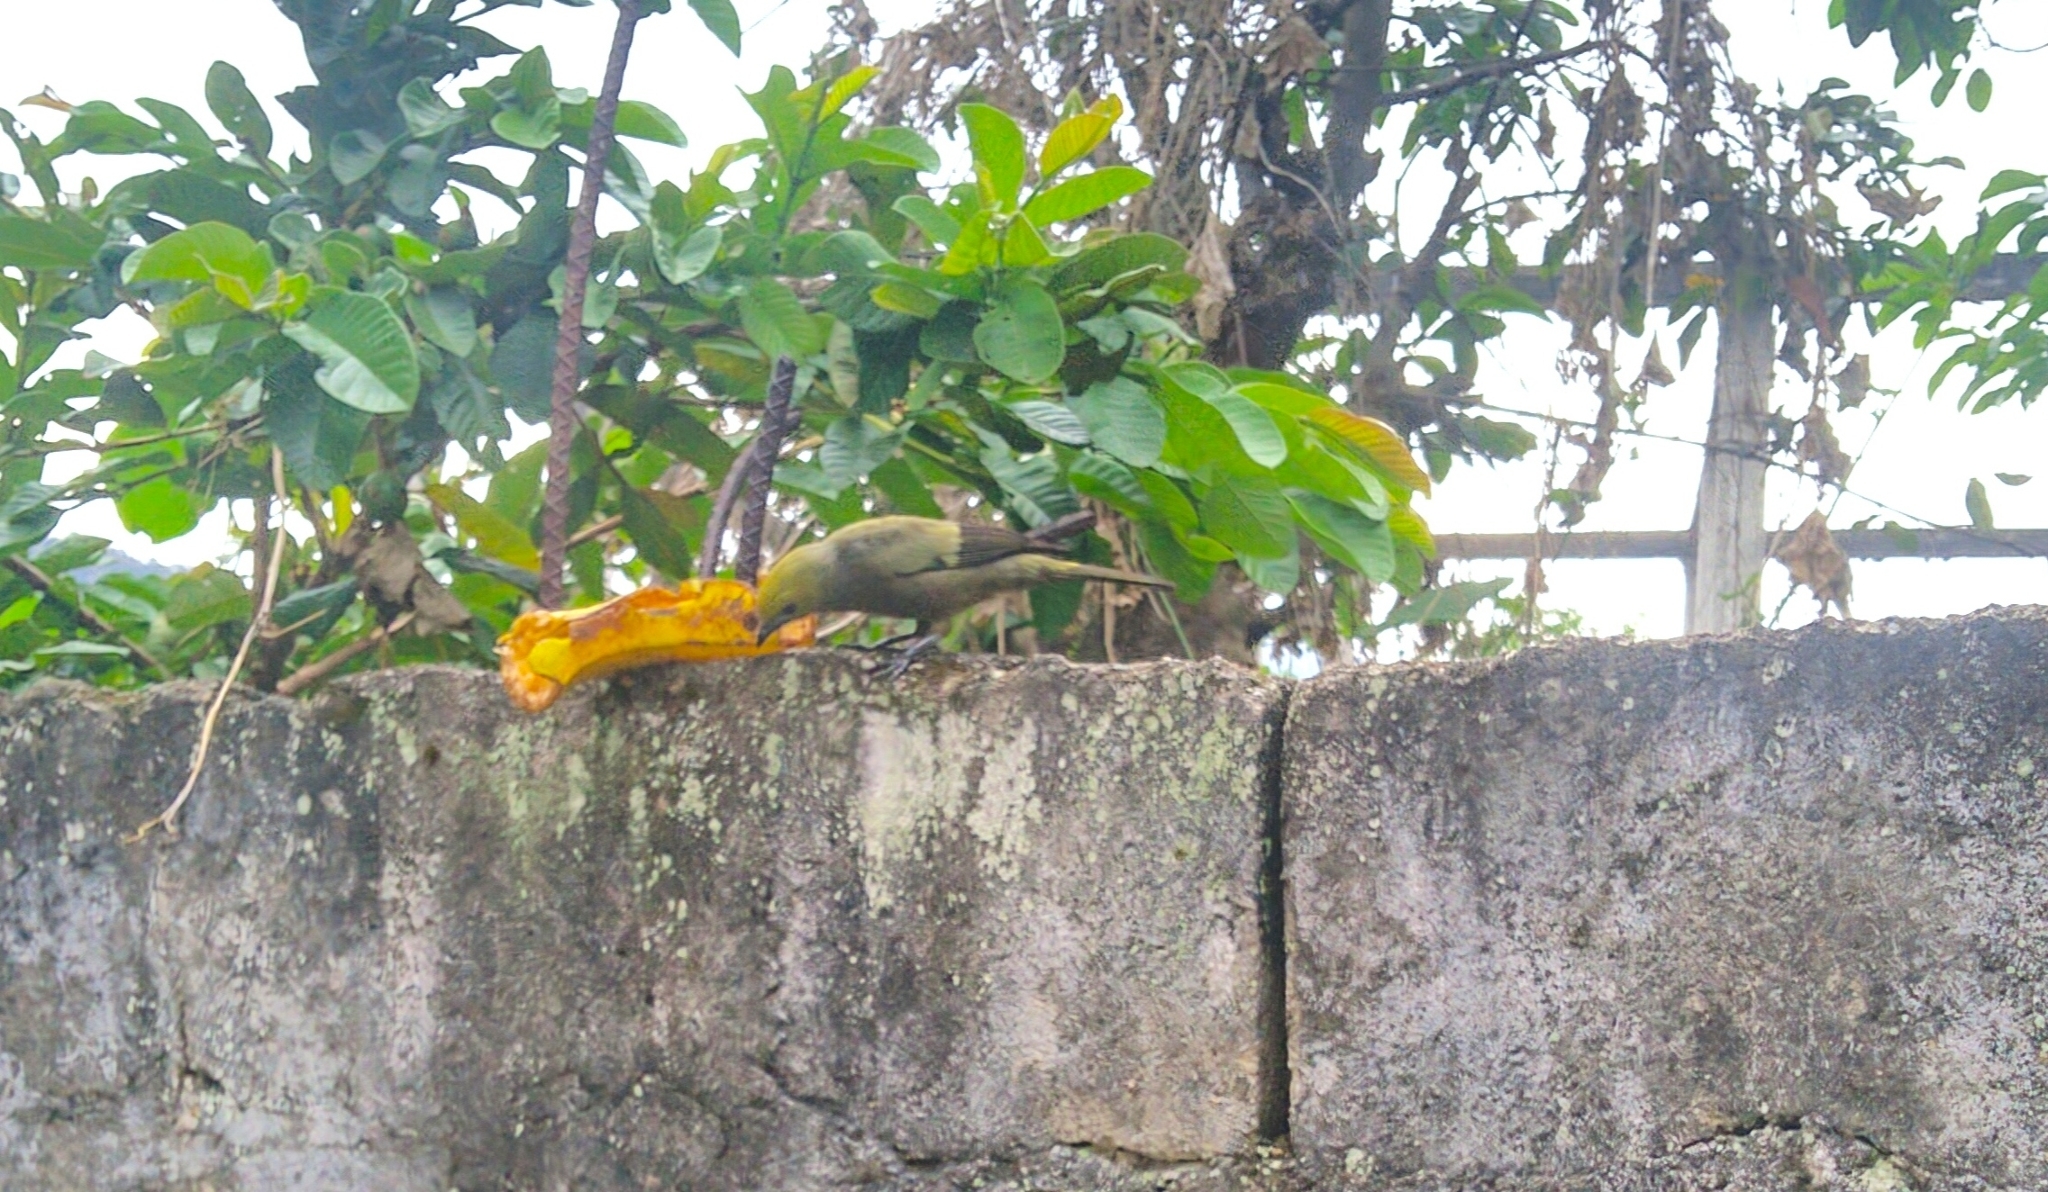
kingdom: Animalia
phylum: Chordata
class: Aves
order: Passeriformes
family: Thraupidae
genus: Thraupis
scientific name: Thraupis palmarum
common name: Palm tanager
